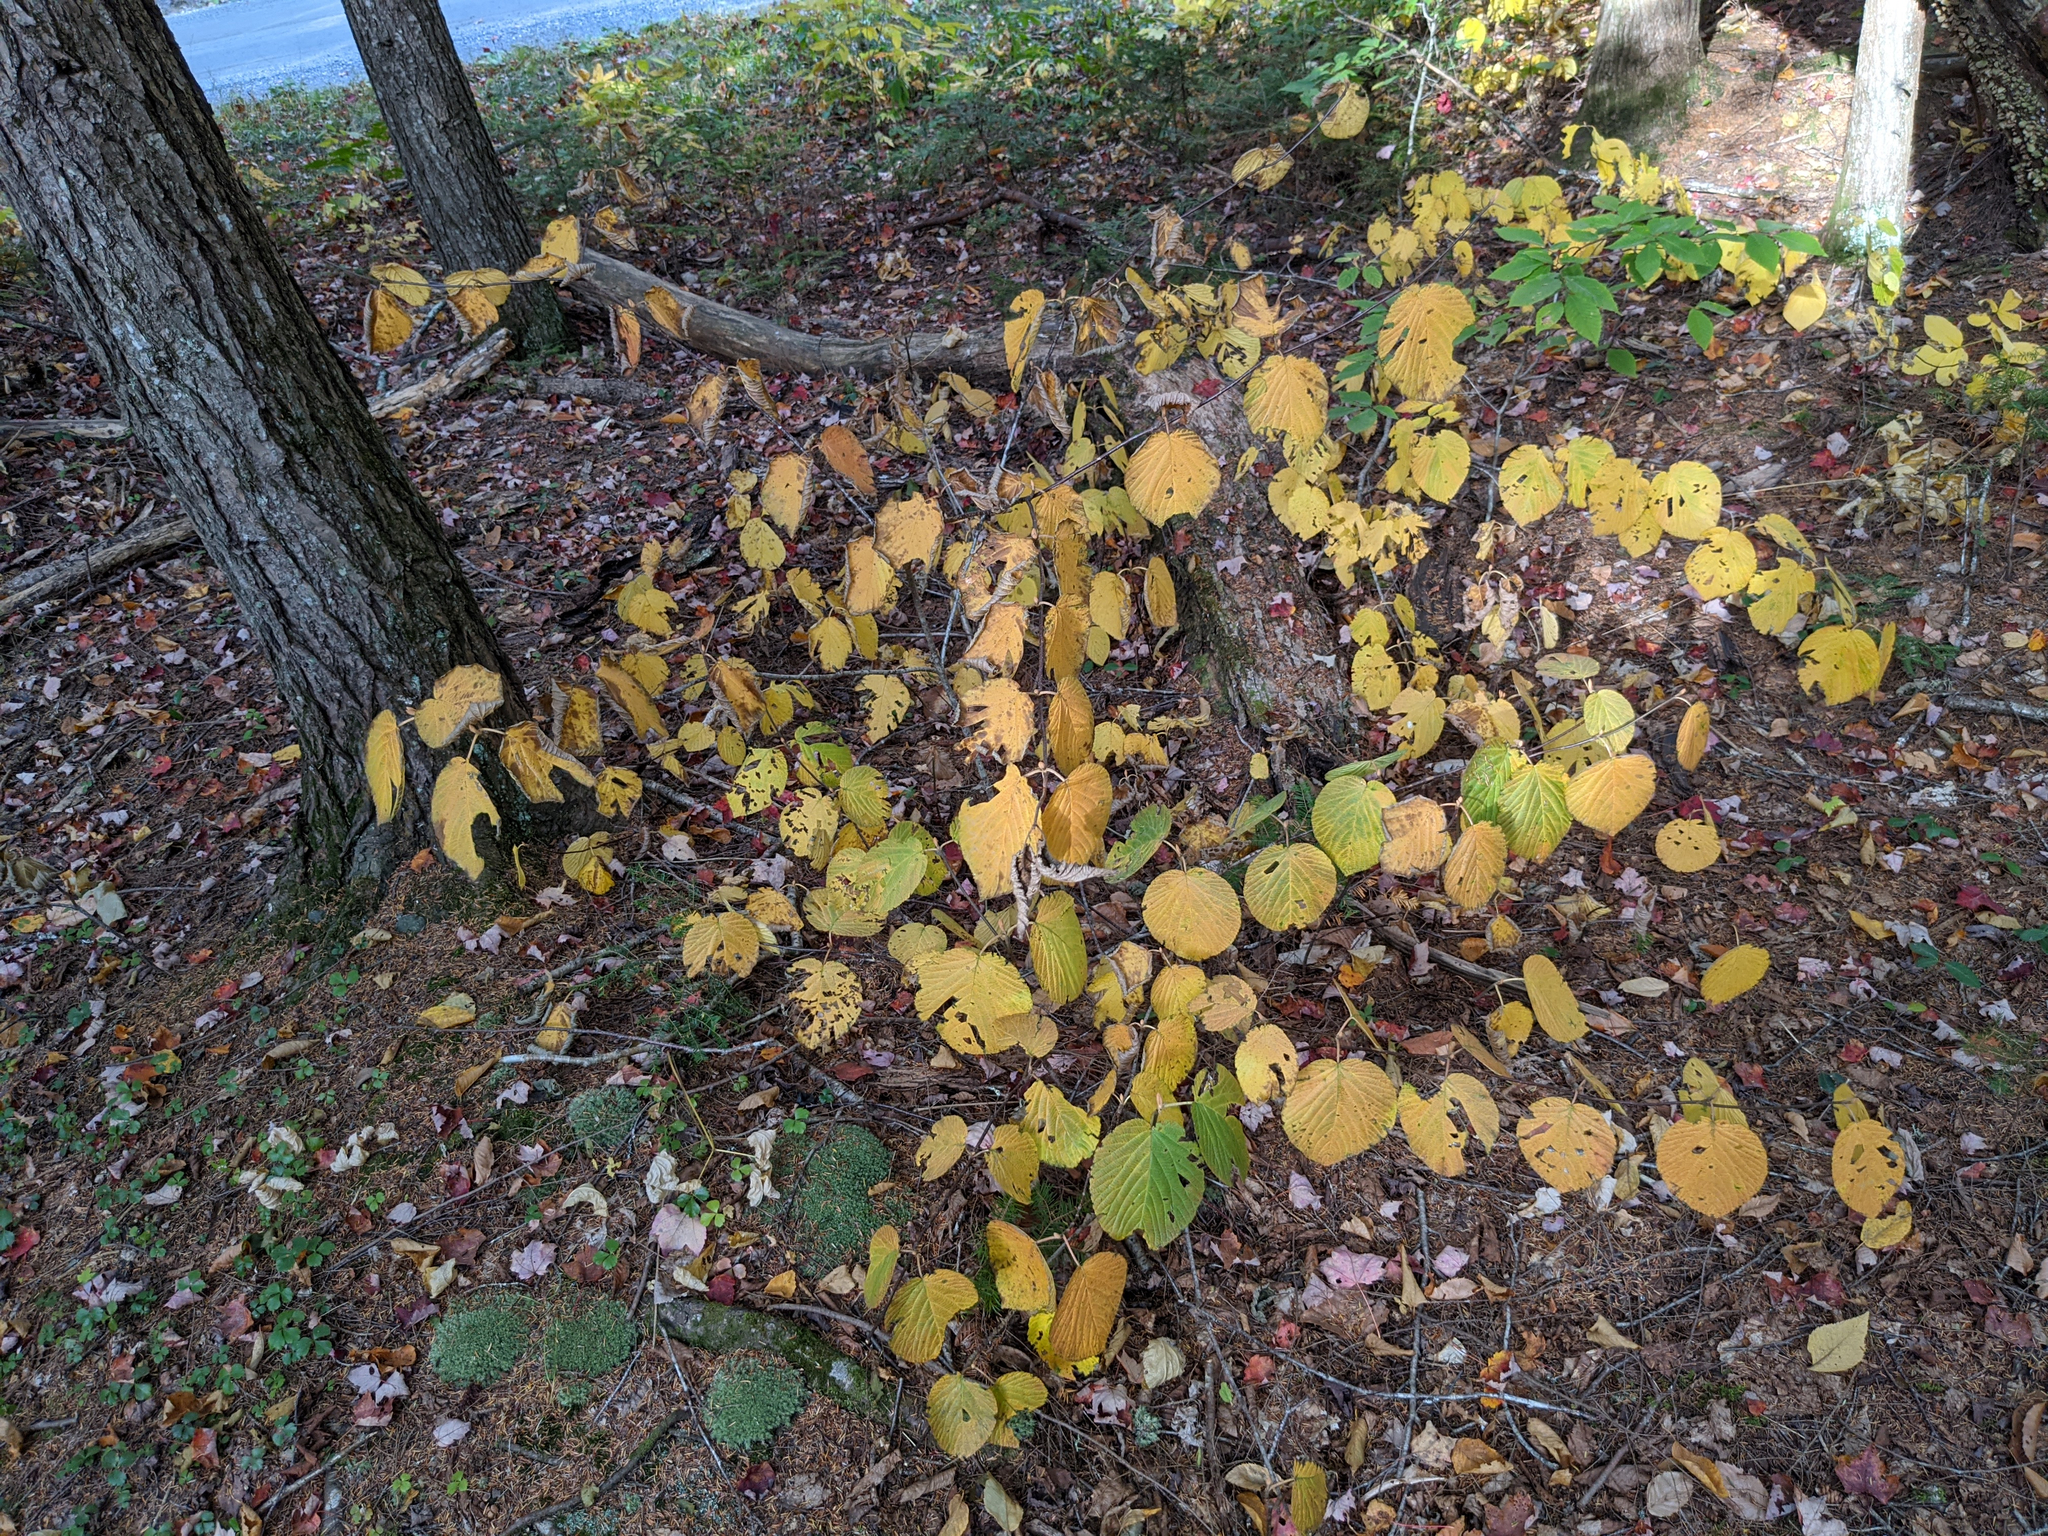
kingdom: Plantae
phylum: Tracheophyta
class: Magnoliopsida
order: Dipsacales
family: Viburnaceae
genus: Viburnum
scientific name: Viburnum lantanoides
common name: Hobblebush
